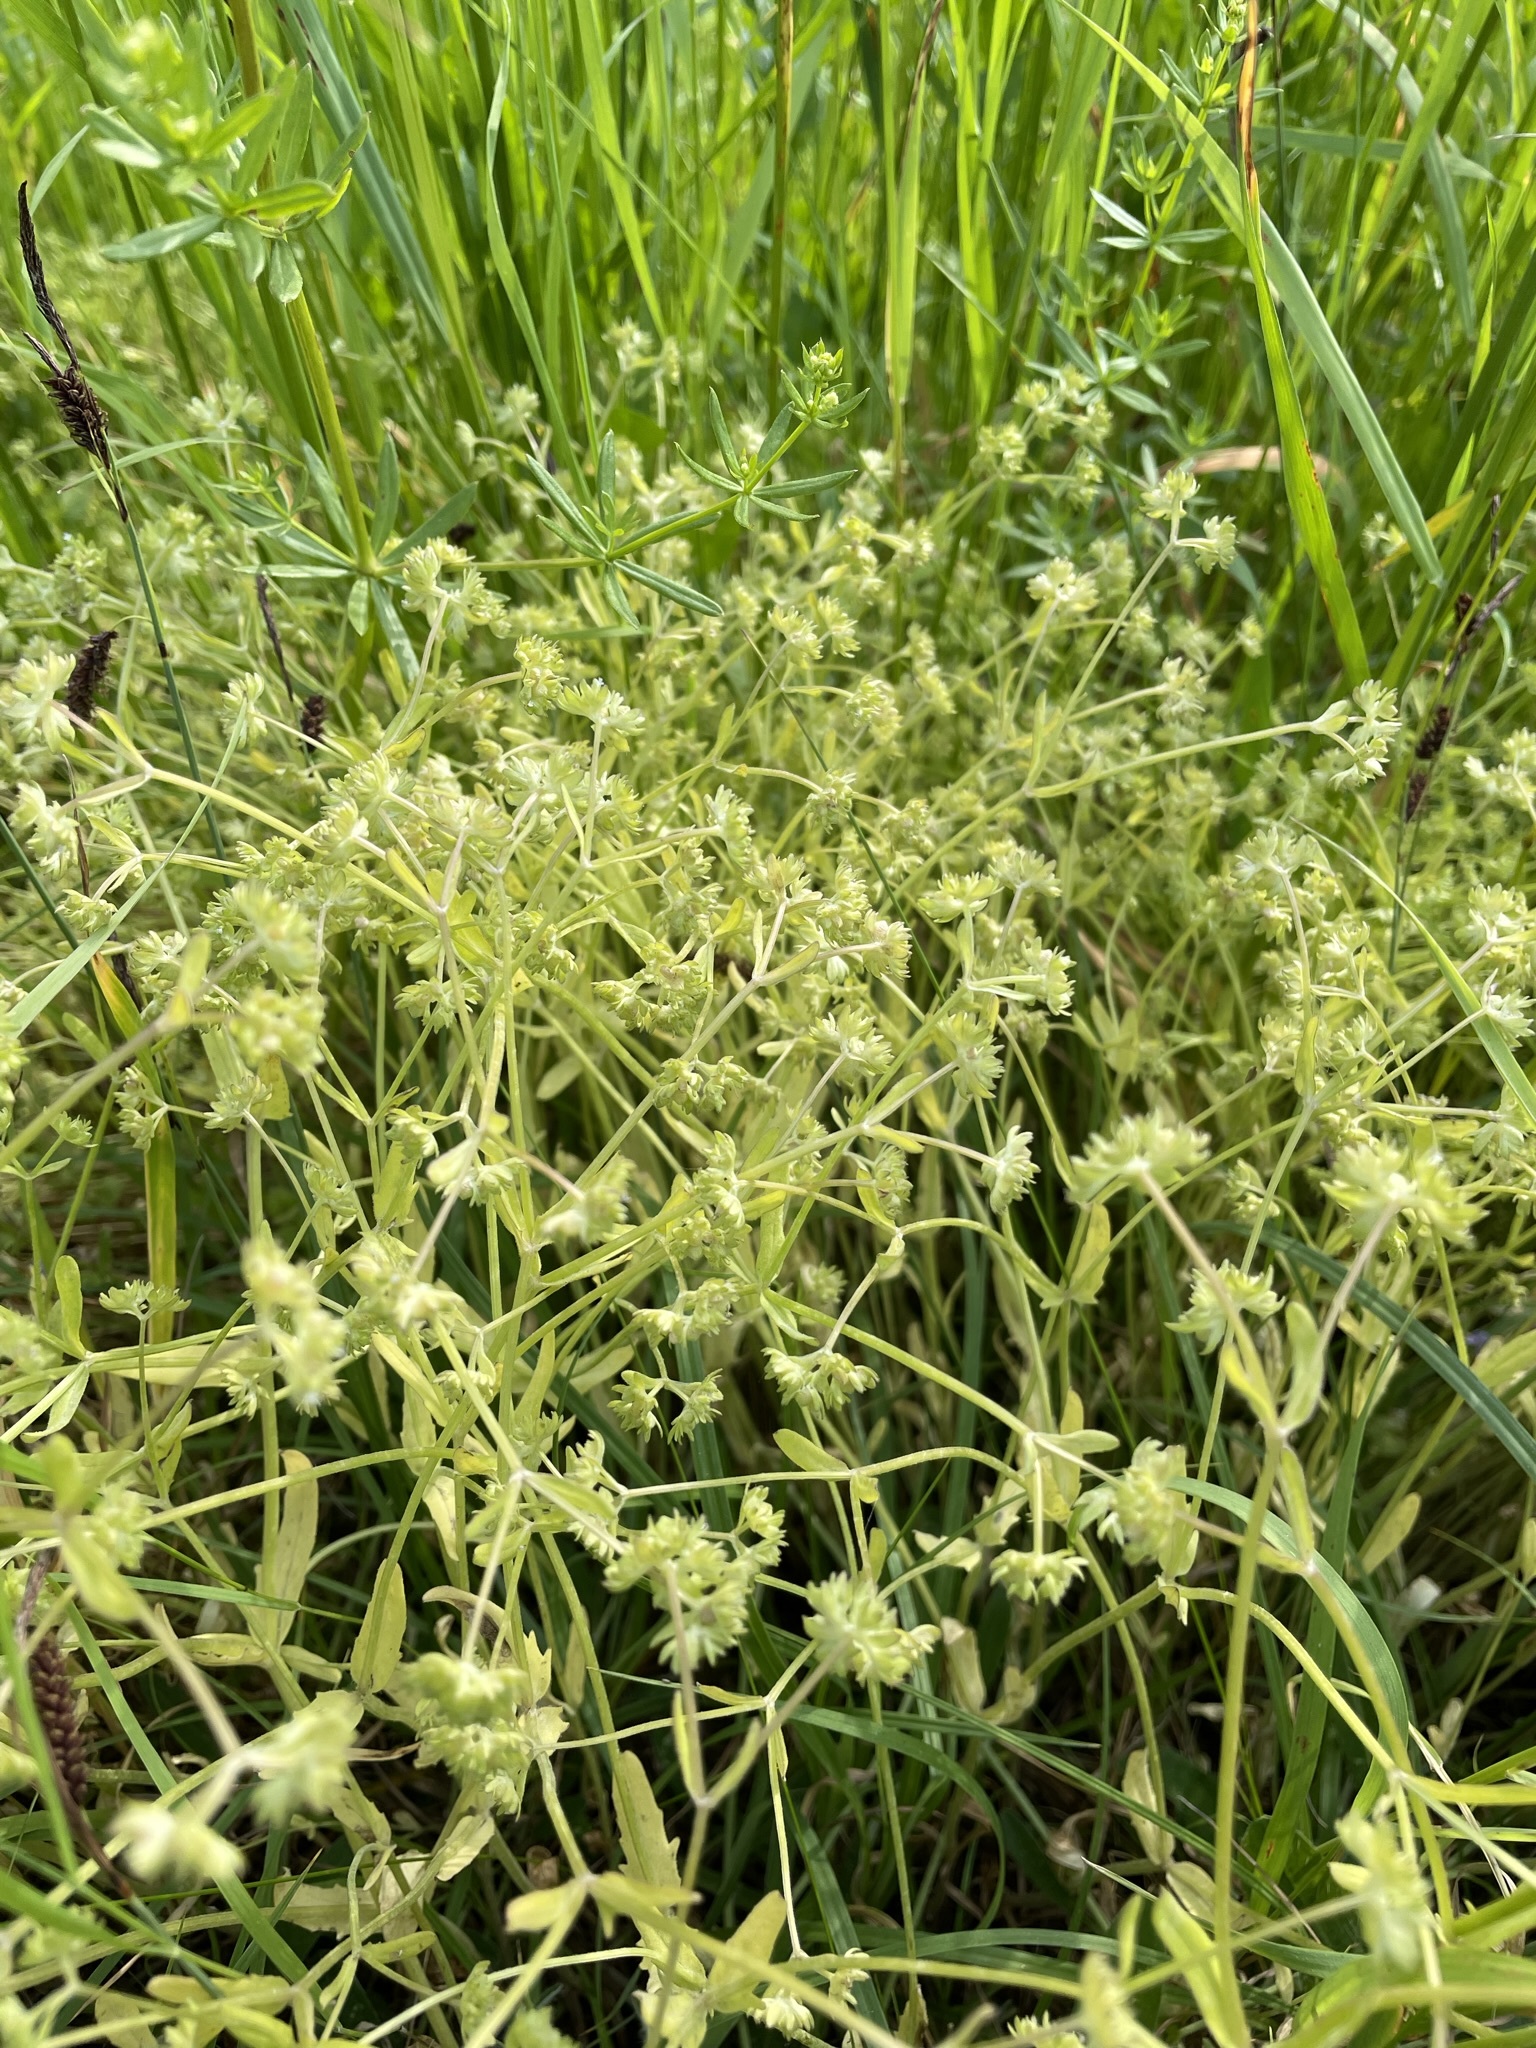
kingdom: Plantae
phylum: Tracheophyta
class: Magnoliopsida
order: Dipsacales
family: Caprifoliaceae
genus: Valerianella
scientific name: Valerianella locusta
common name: Common cornsalad
